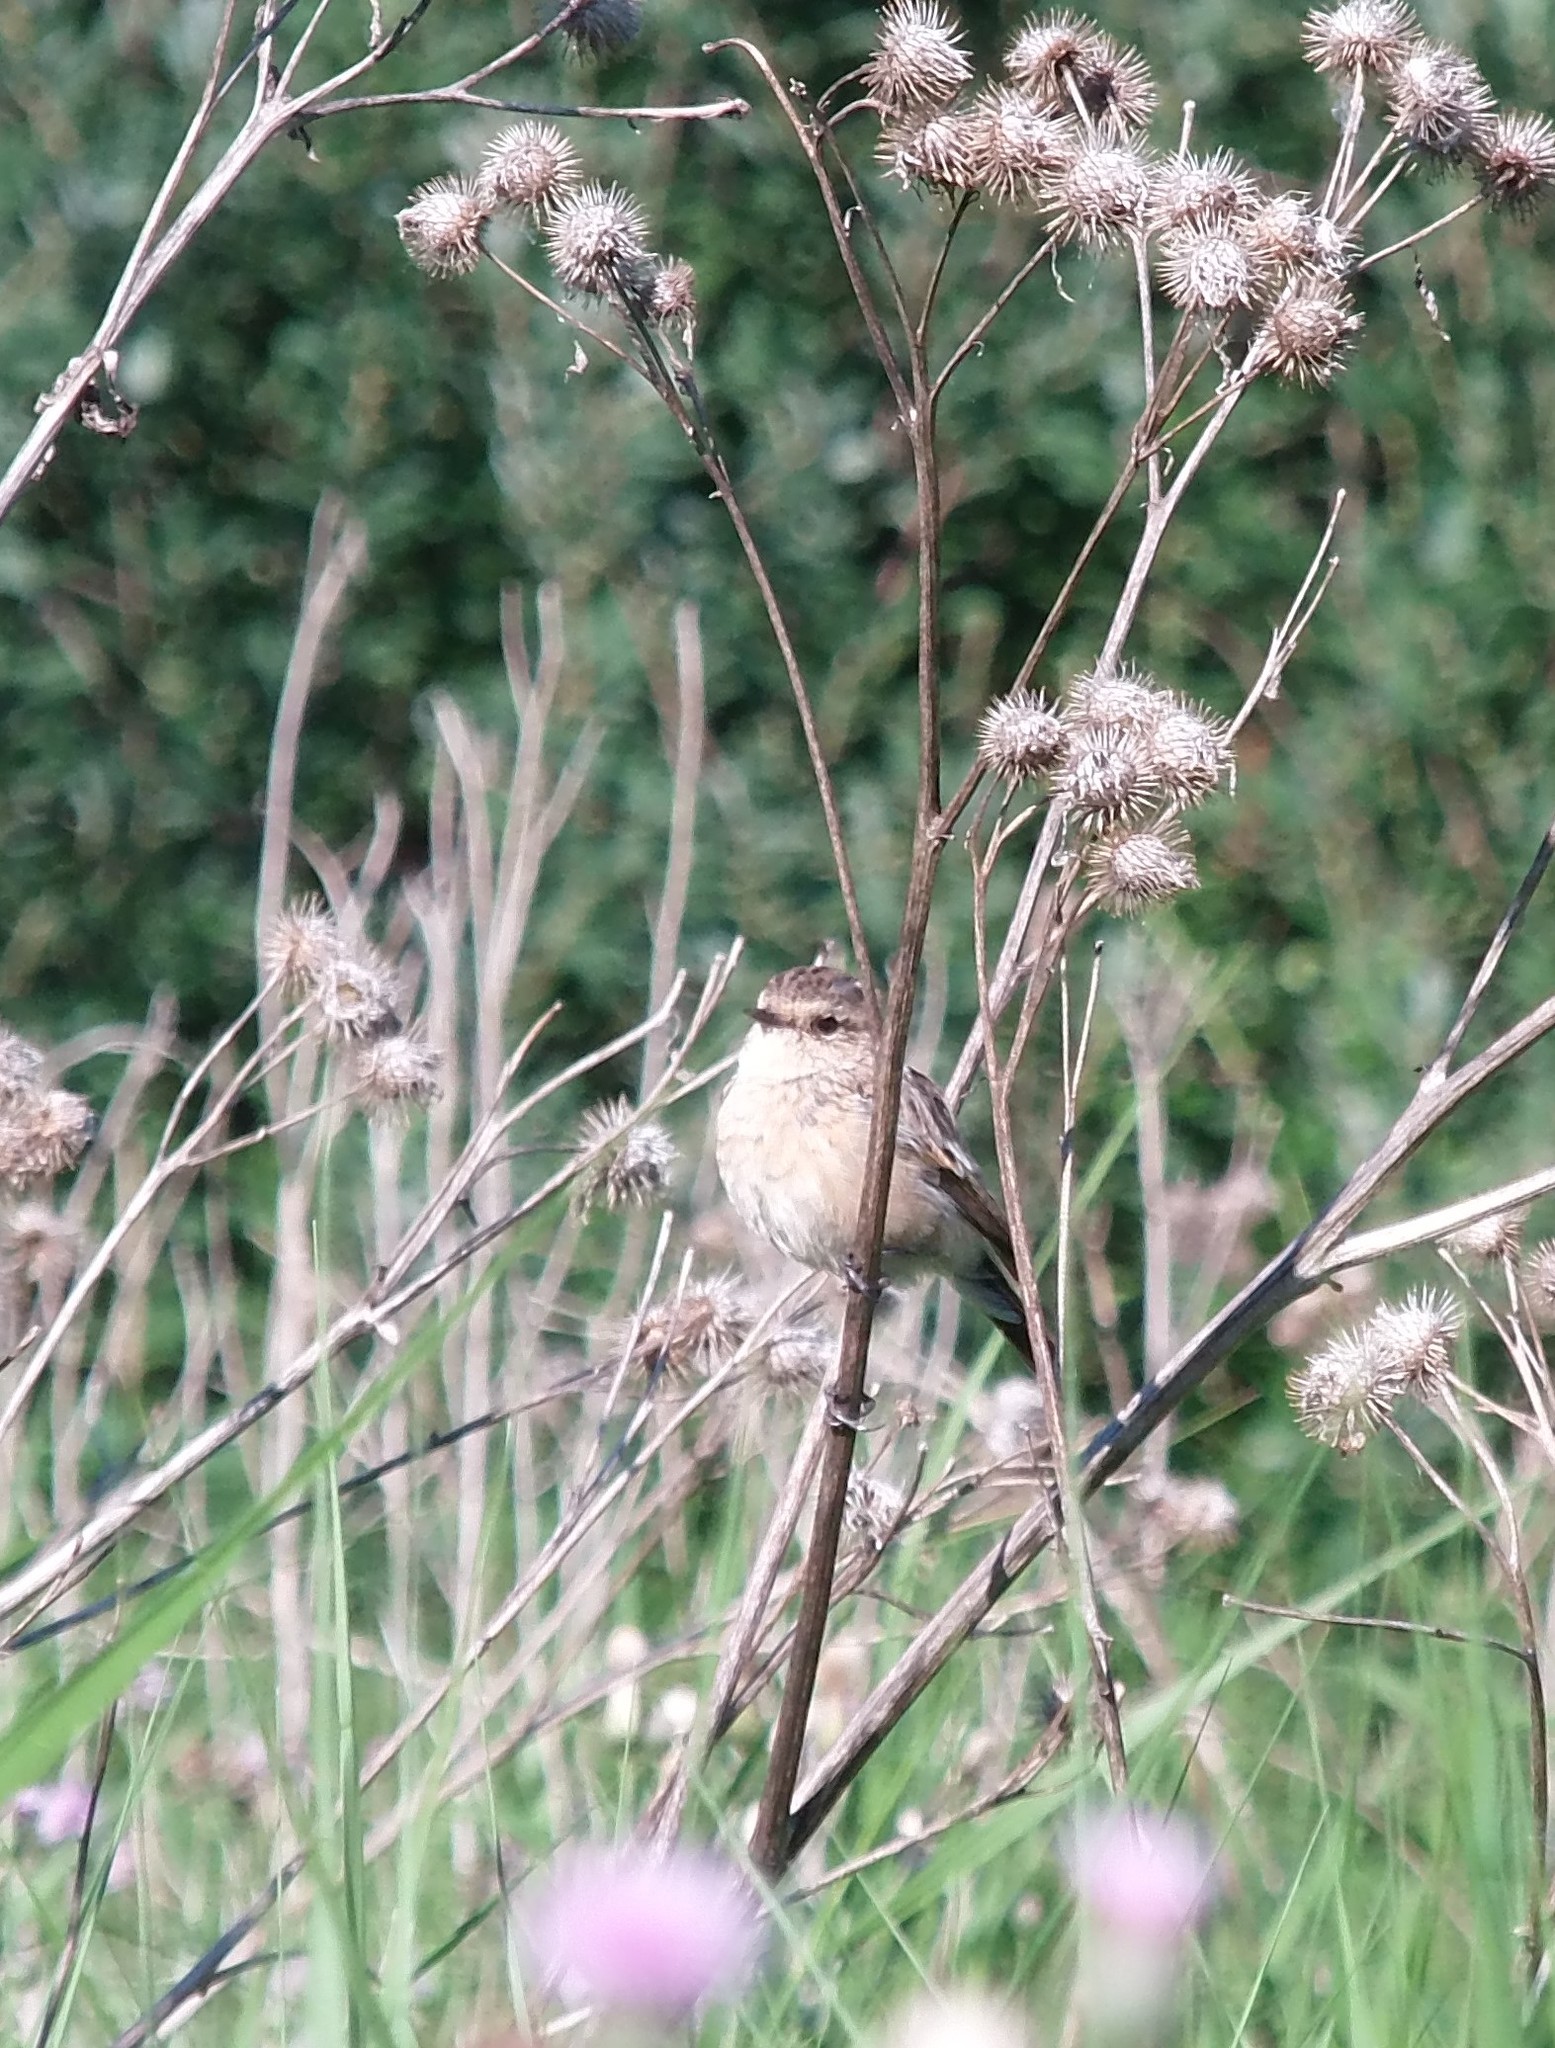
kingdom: Animalia
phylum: Chordata
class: Aves
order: Passeriformes
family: Muscicapidae
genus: Saxicola
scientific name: Saxicola maurus
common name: Siberian stonechat
